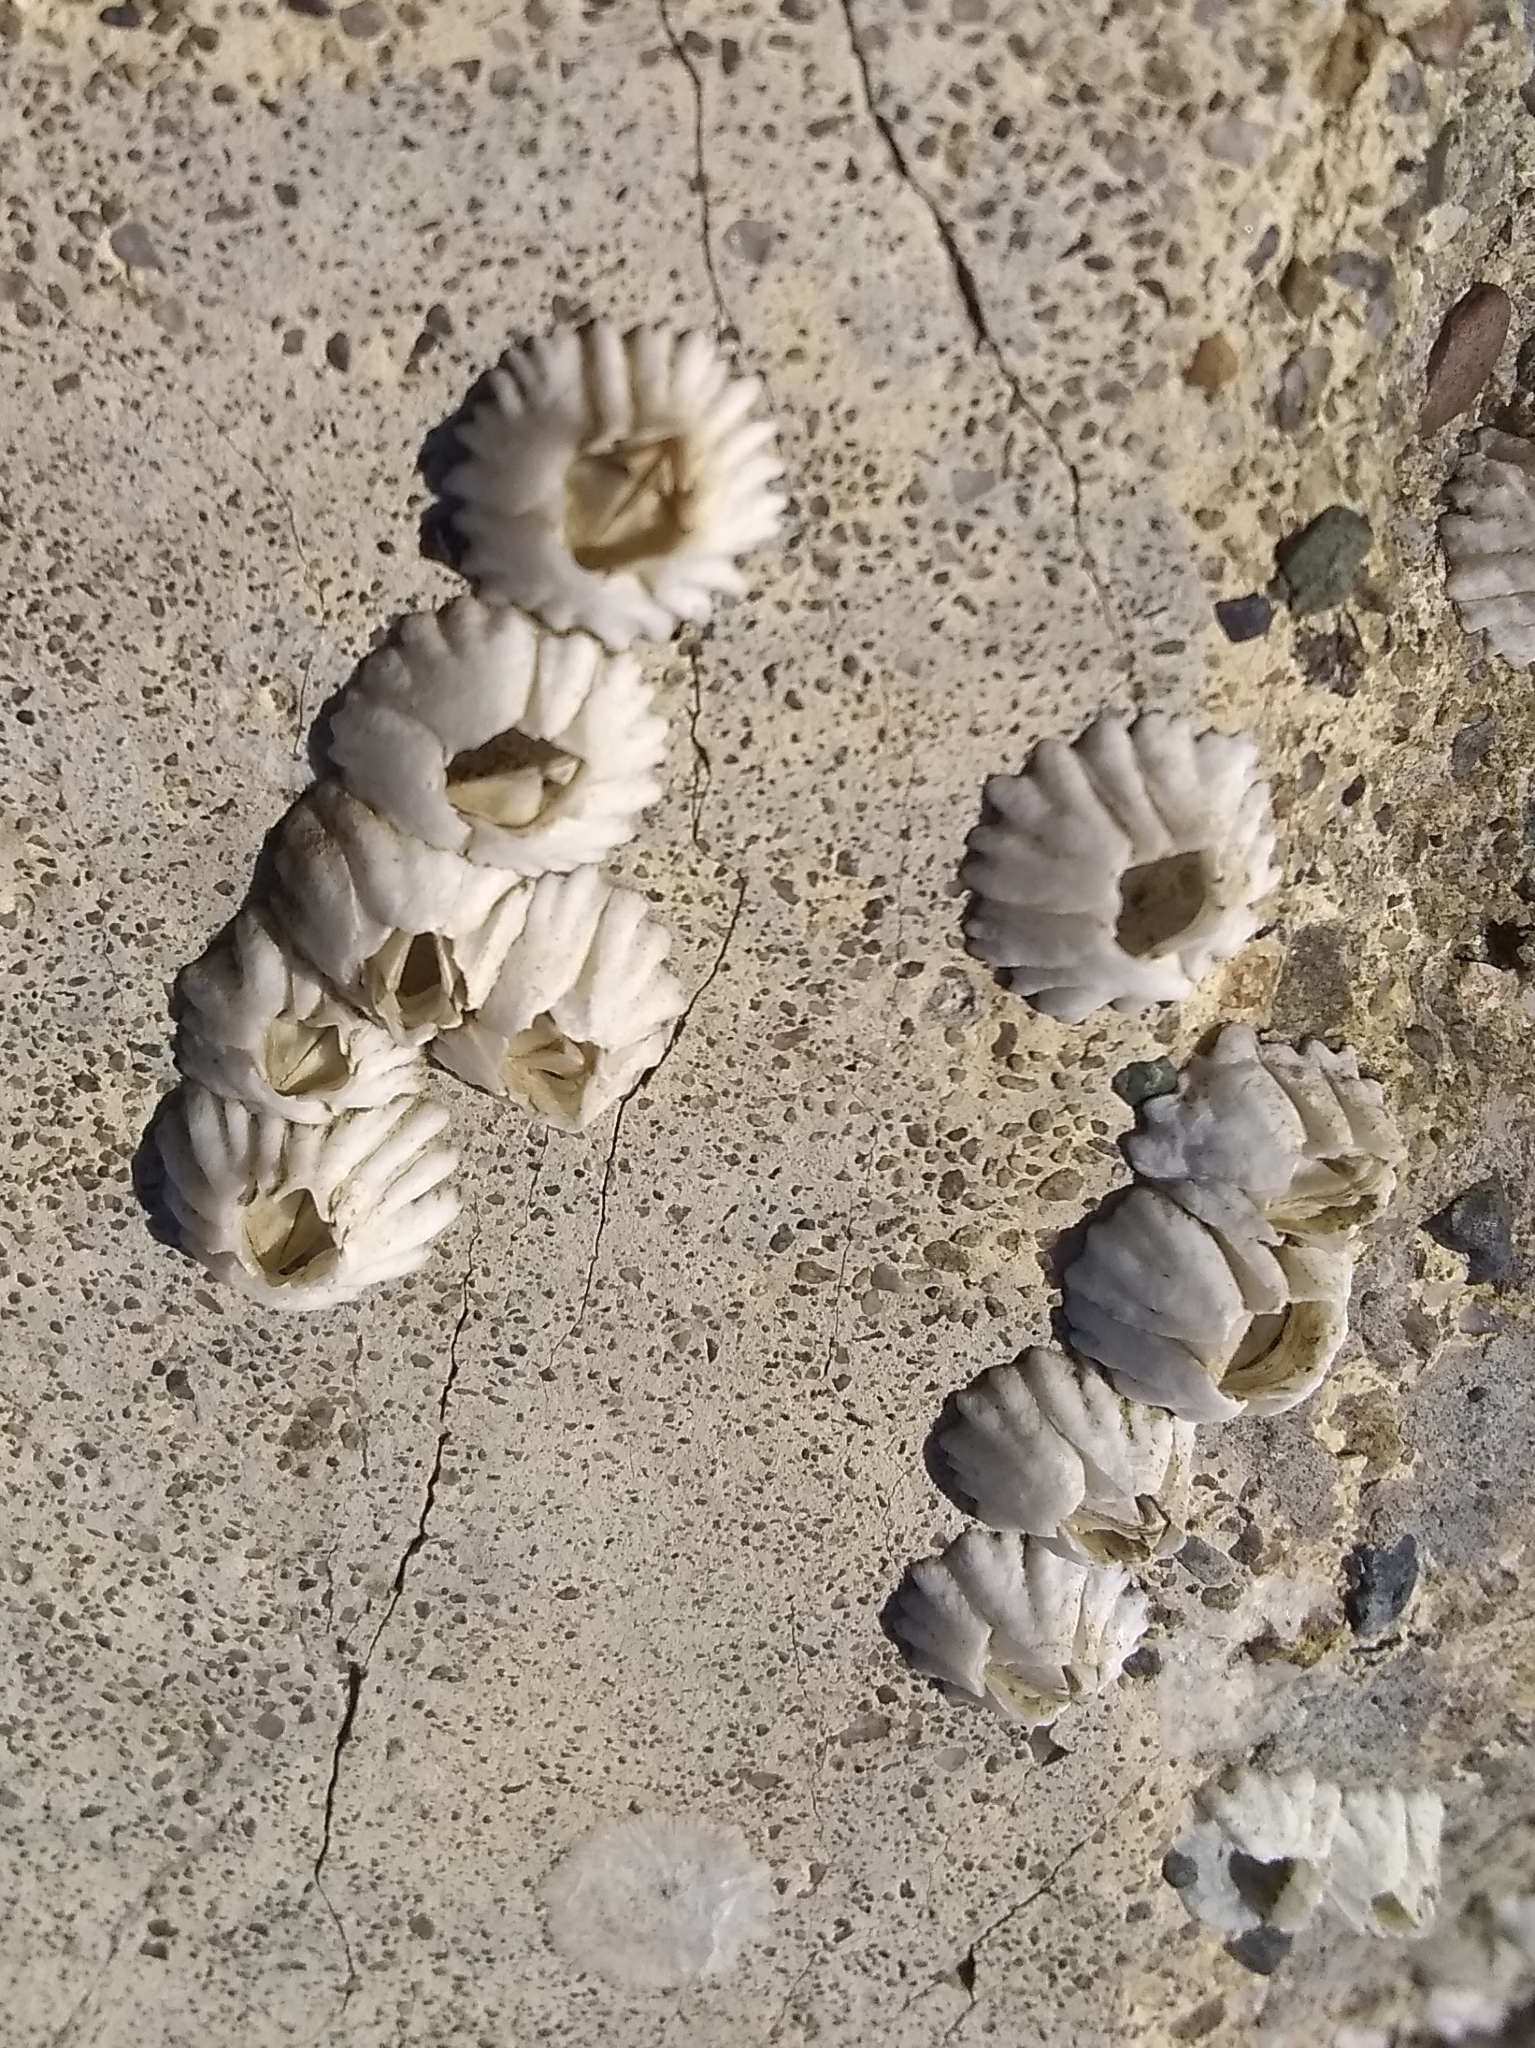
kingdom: Animalia
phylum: Arthropoda
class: Maxillopoda
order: Sessilia
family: Balanidae
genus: Balanus
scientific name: Balanus glandula
